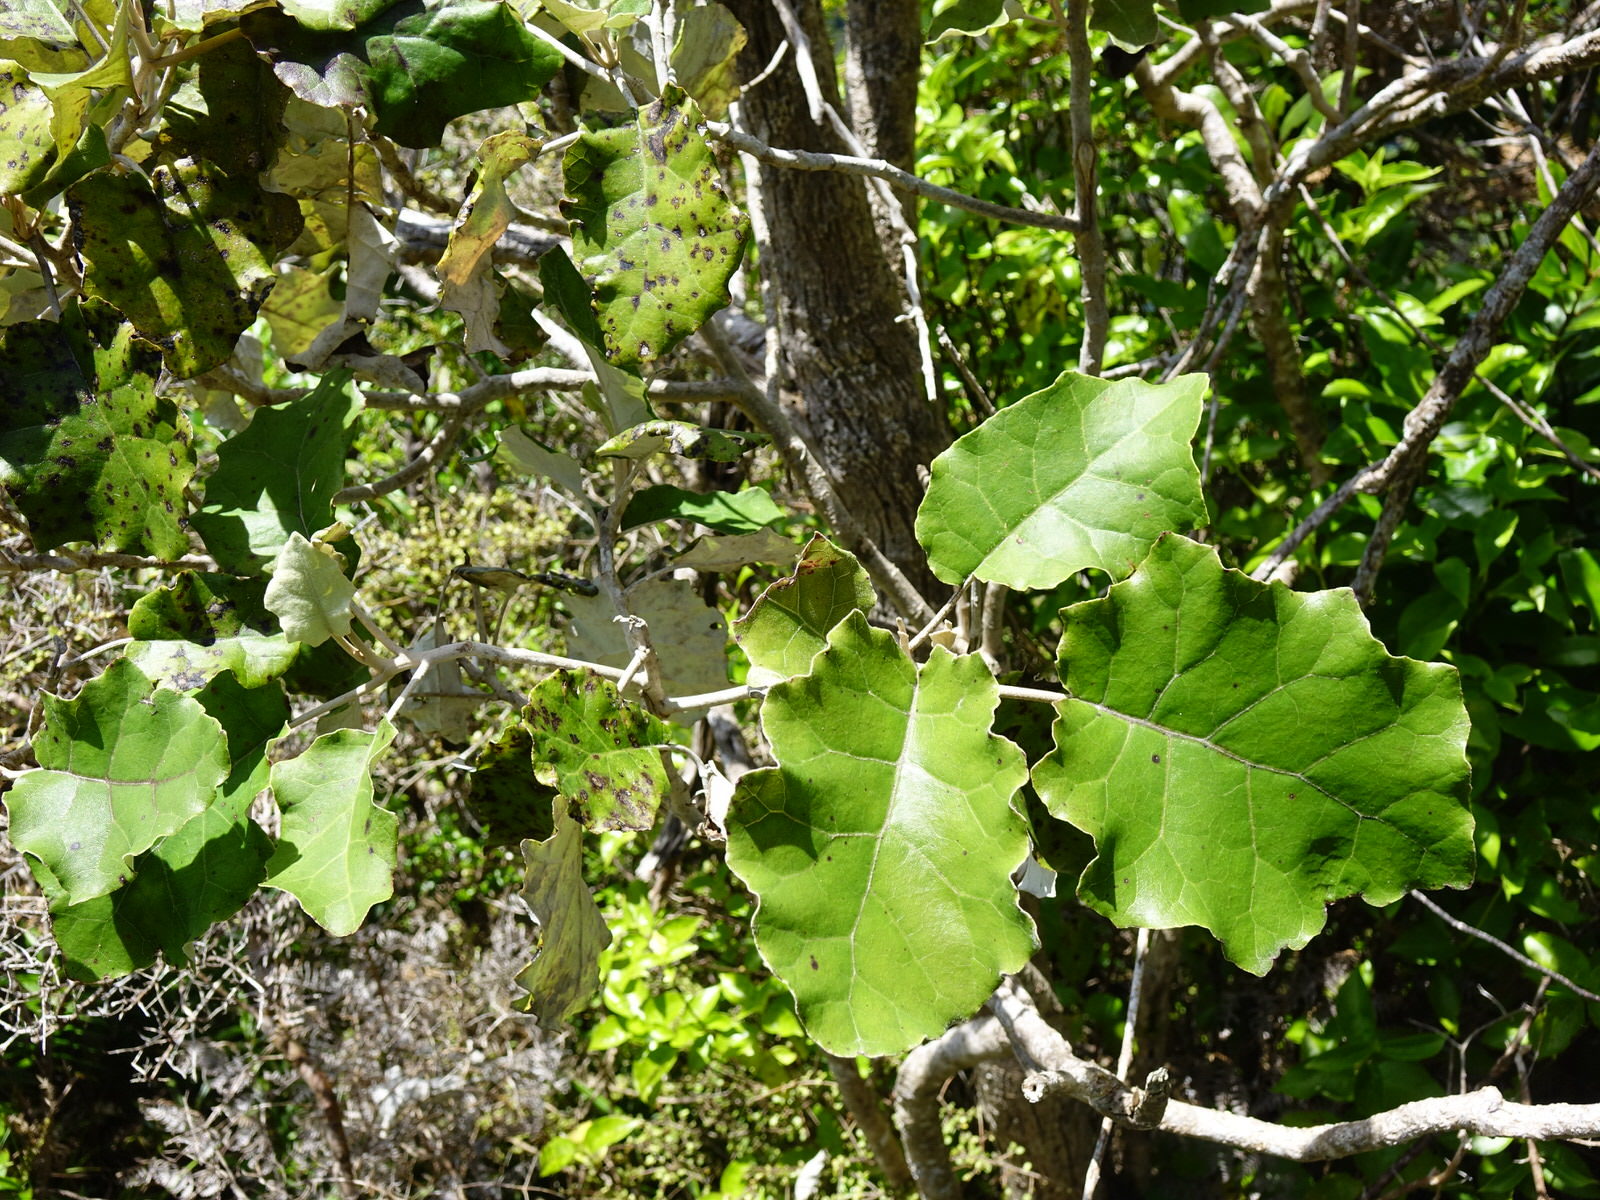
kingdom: Plantae
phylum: Tracheophyta
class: Magnoliopsida
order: Asterales
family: Asteraceae
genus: Brachyglottis
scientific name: Brachyglottis repanda
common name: Hedge ragwort
